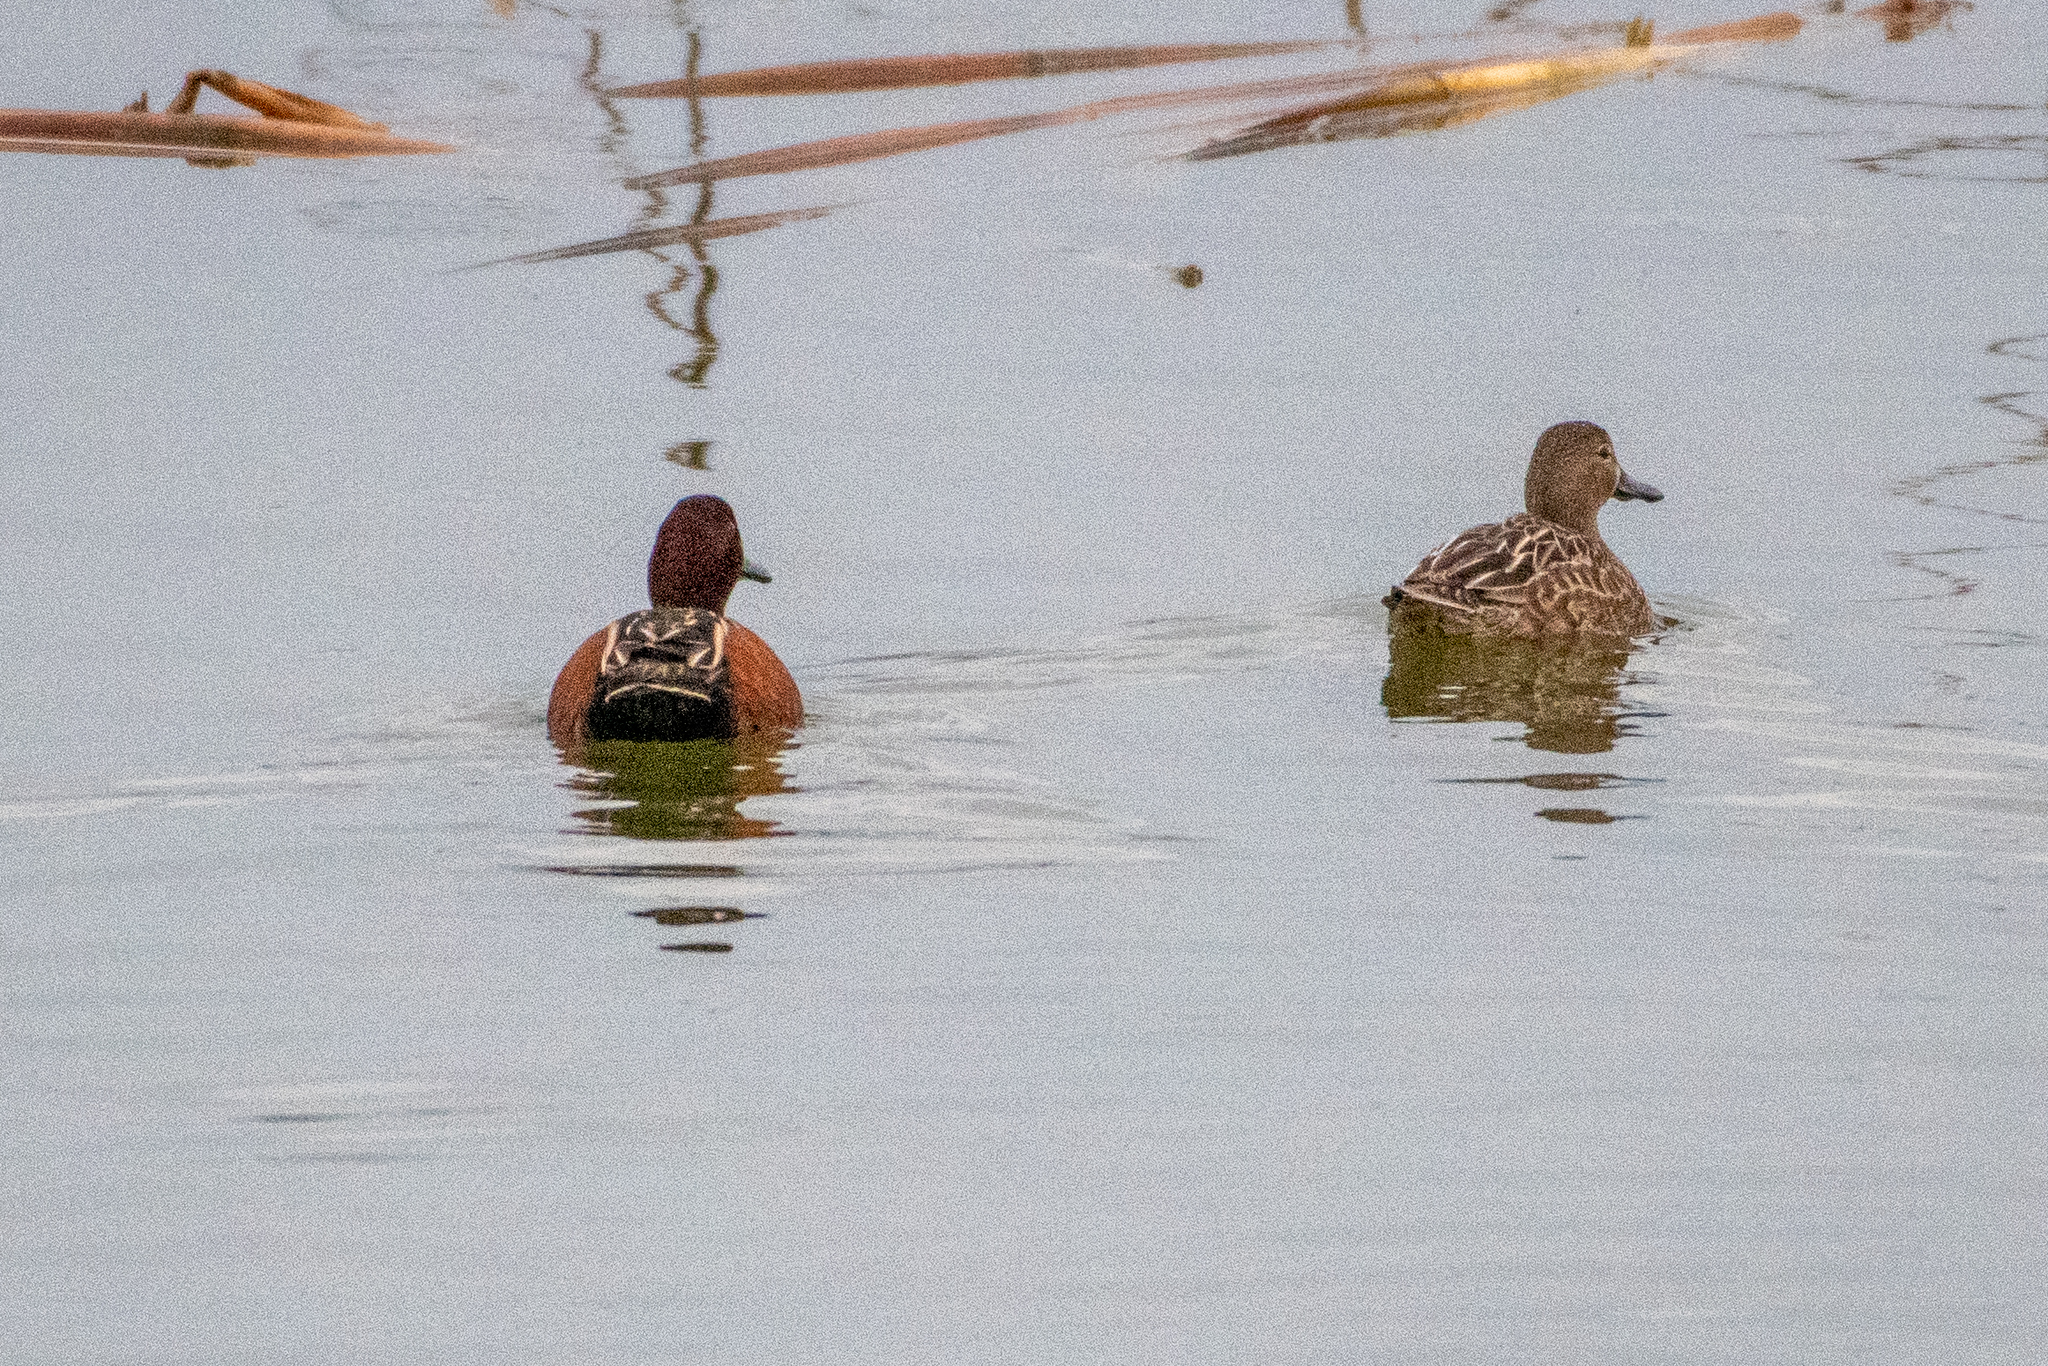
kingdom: Animalia
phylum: Chordata
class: Aves
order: Anseriformes
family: Anatidae
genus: Spatula
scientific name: Spatula cyanoptera
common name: Cinnamon teal
